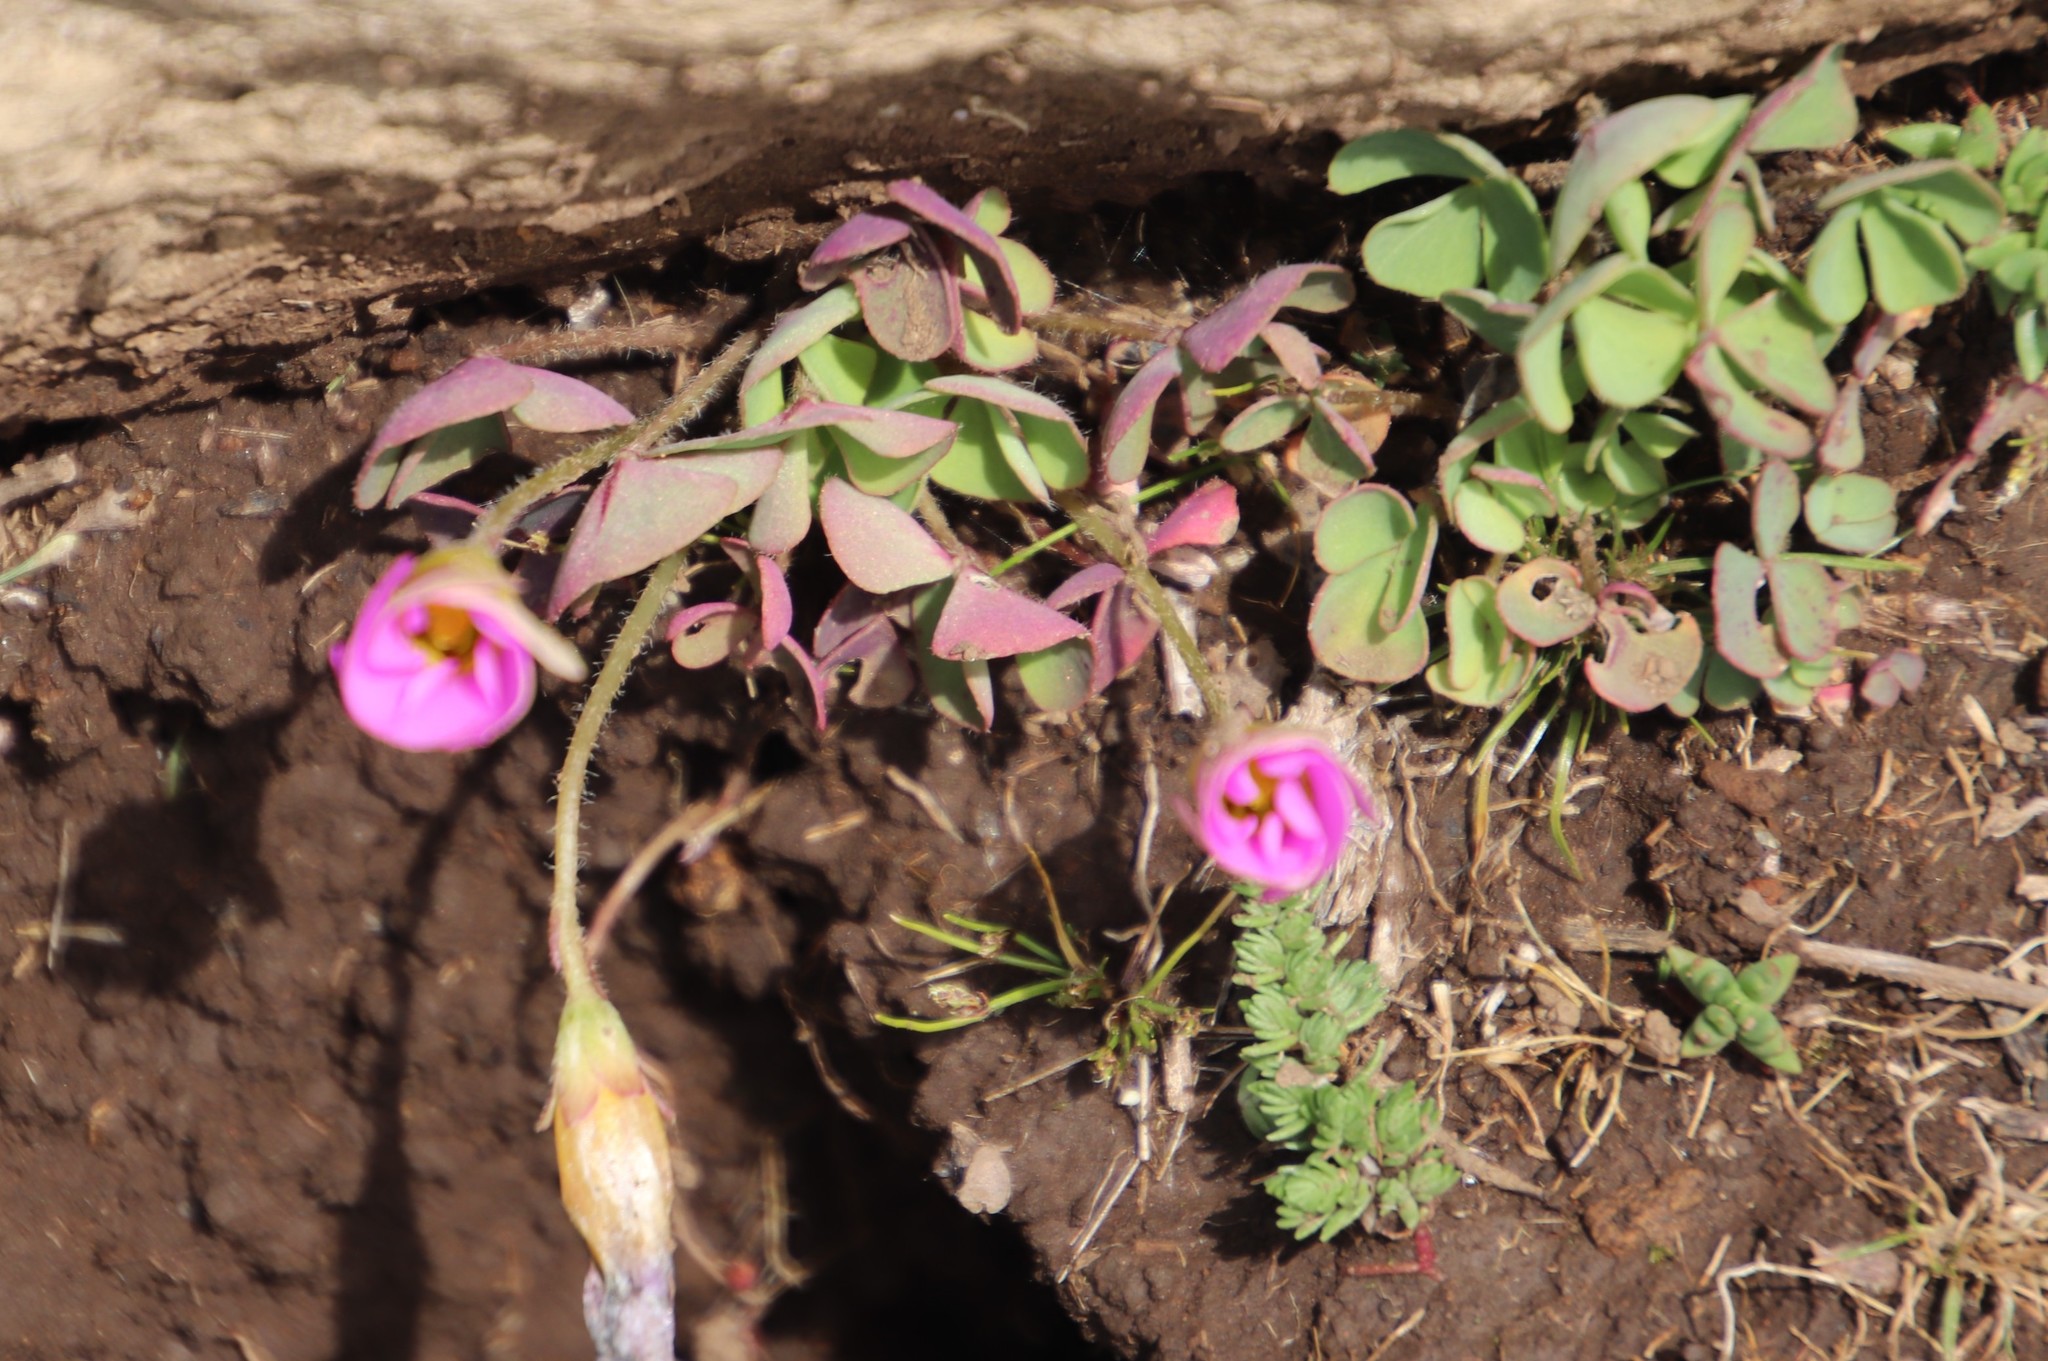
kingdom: Plantae
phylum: Tracheophyta
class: Magnoliopsida
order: Oxalidales
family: Oxalidaceae
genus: Oxalis
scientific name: Oxalis obliquifolia
